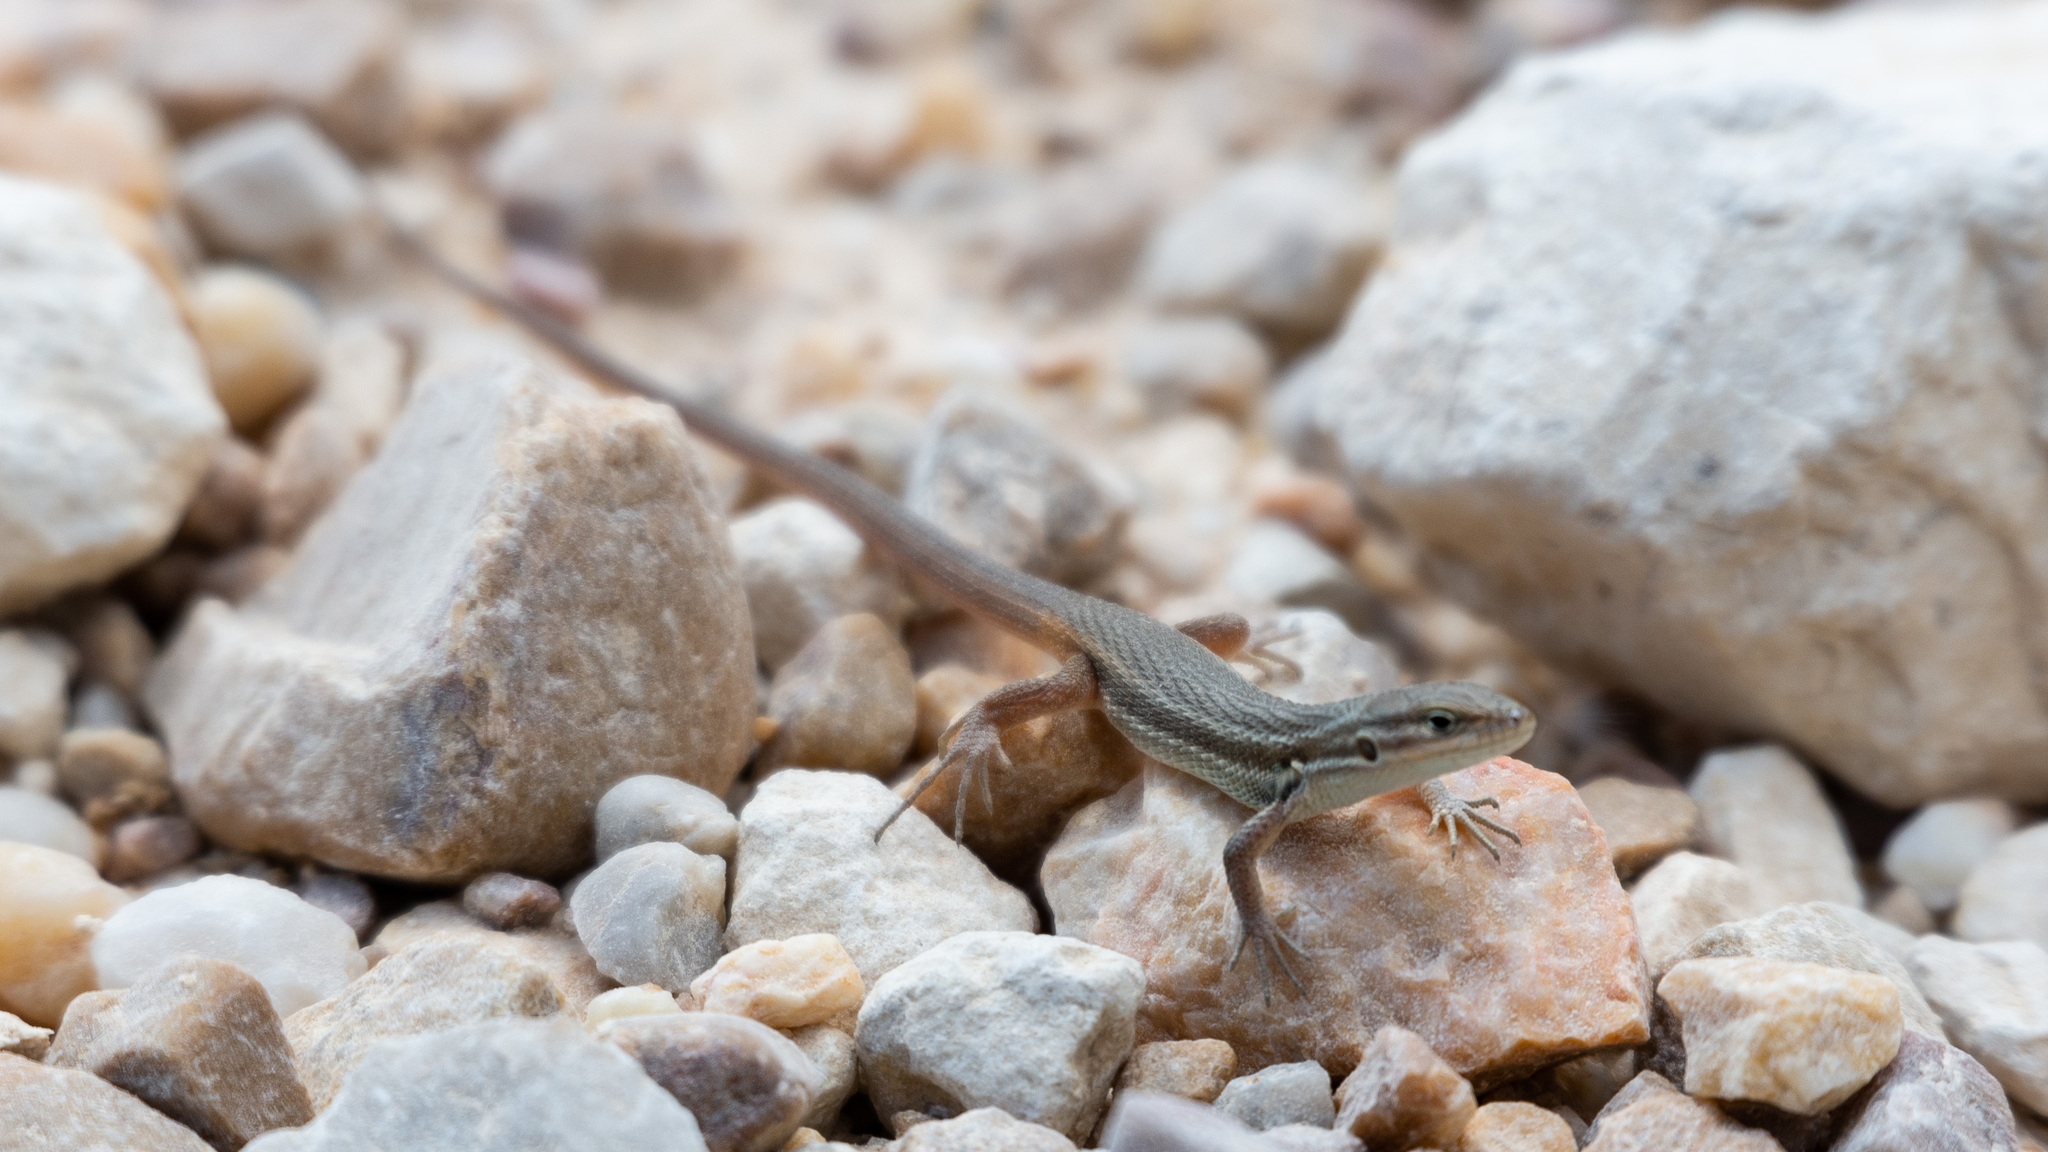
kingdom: Animalia
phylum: Chordata
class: Squamata
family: Lacertidae
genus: Psammodromus
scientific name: Psammodromus algirus
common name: Algerian psammodromus
